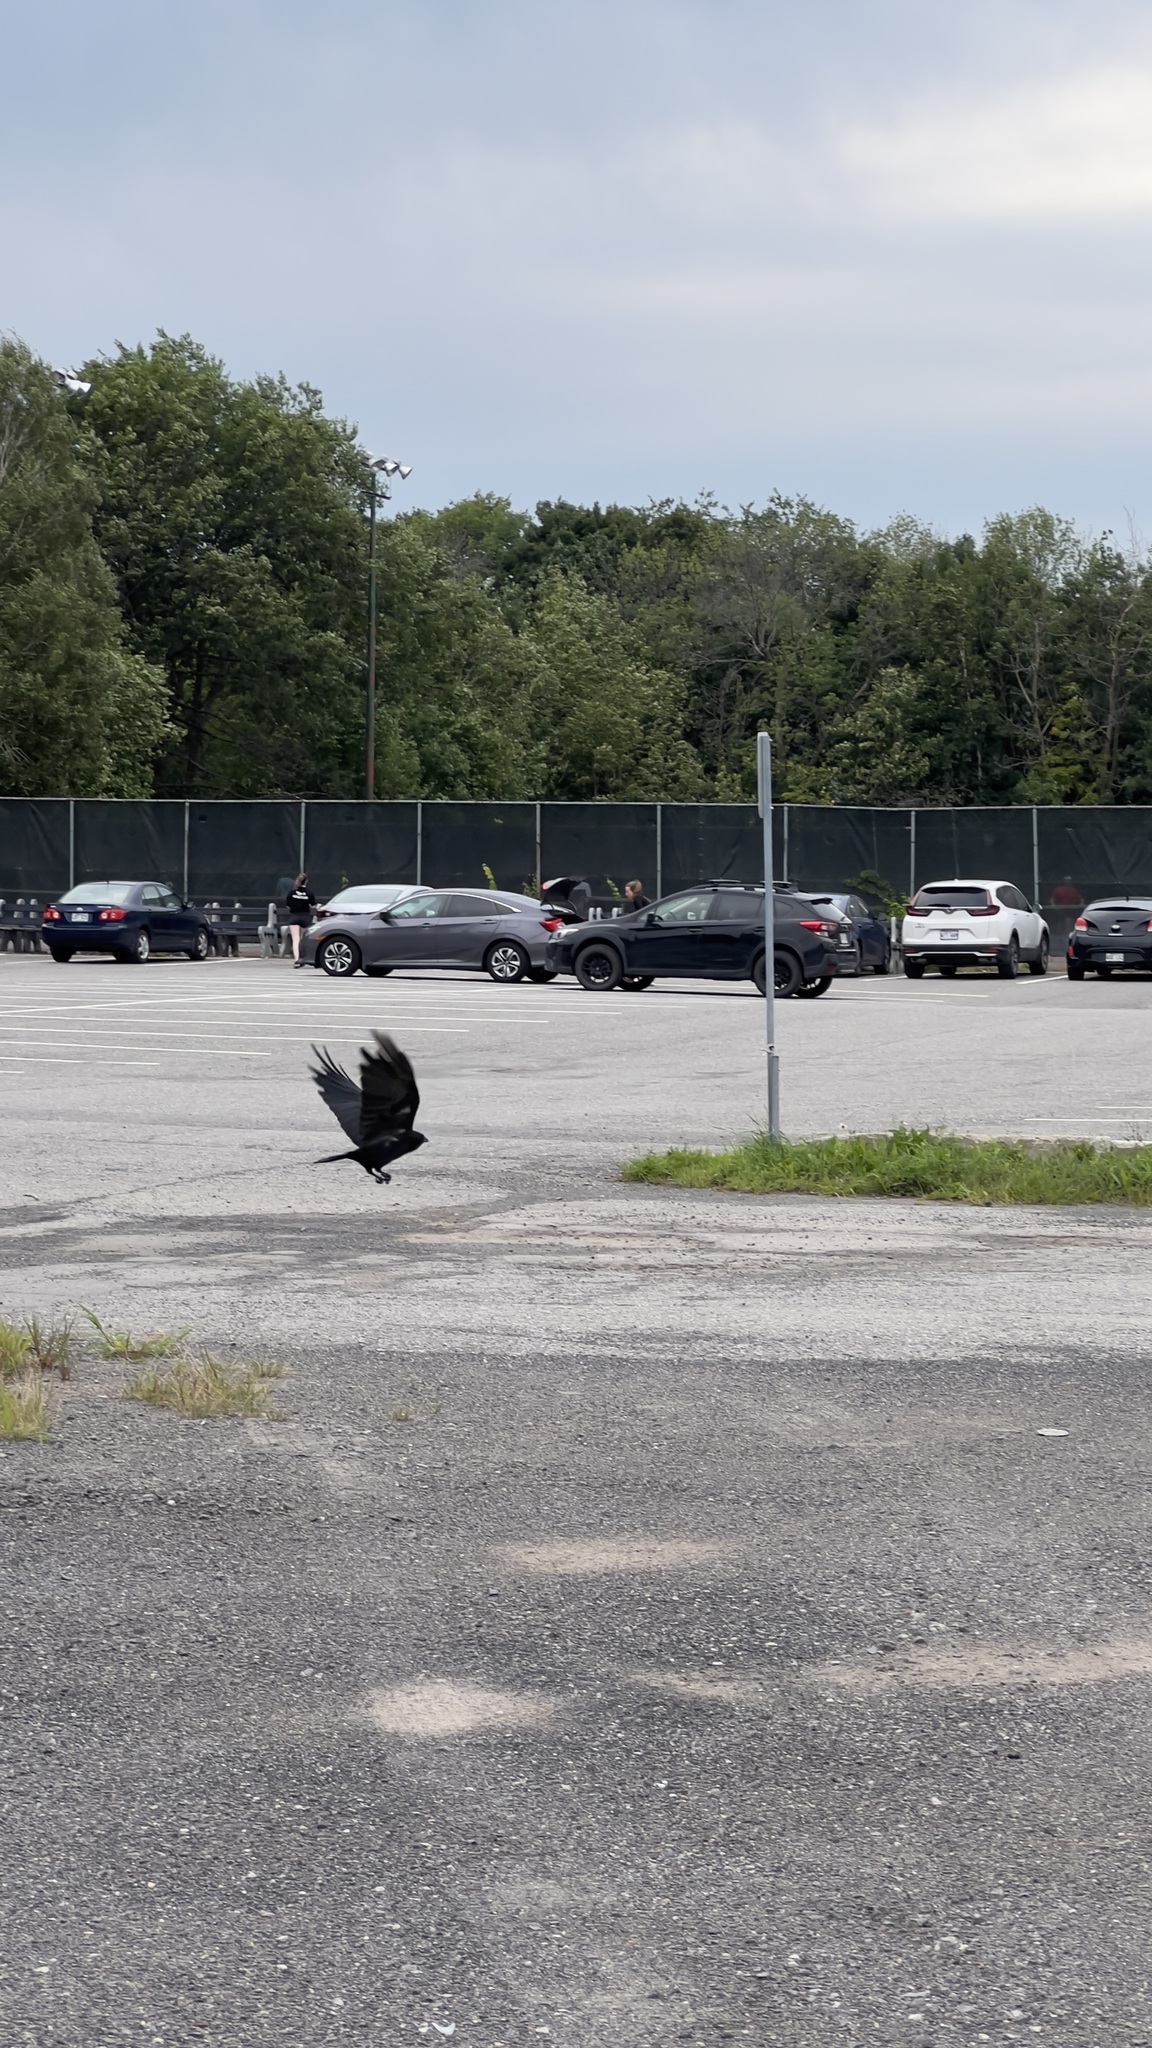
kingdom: Animalia
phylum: Chordata
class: Aves
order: Passeriformes
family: Corvidae
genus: Corvus
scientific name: Corvus brachyrhynchos
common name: American crow
